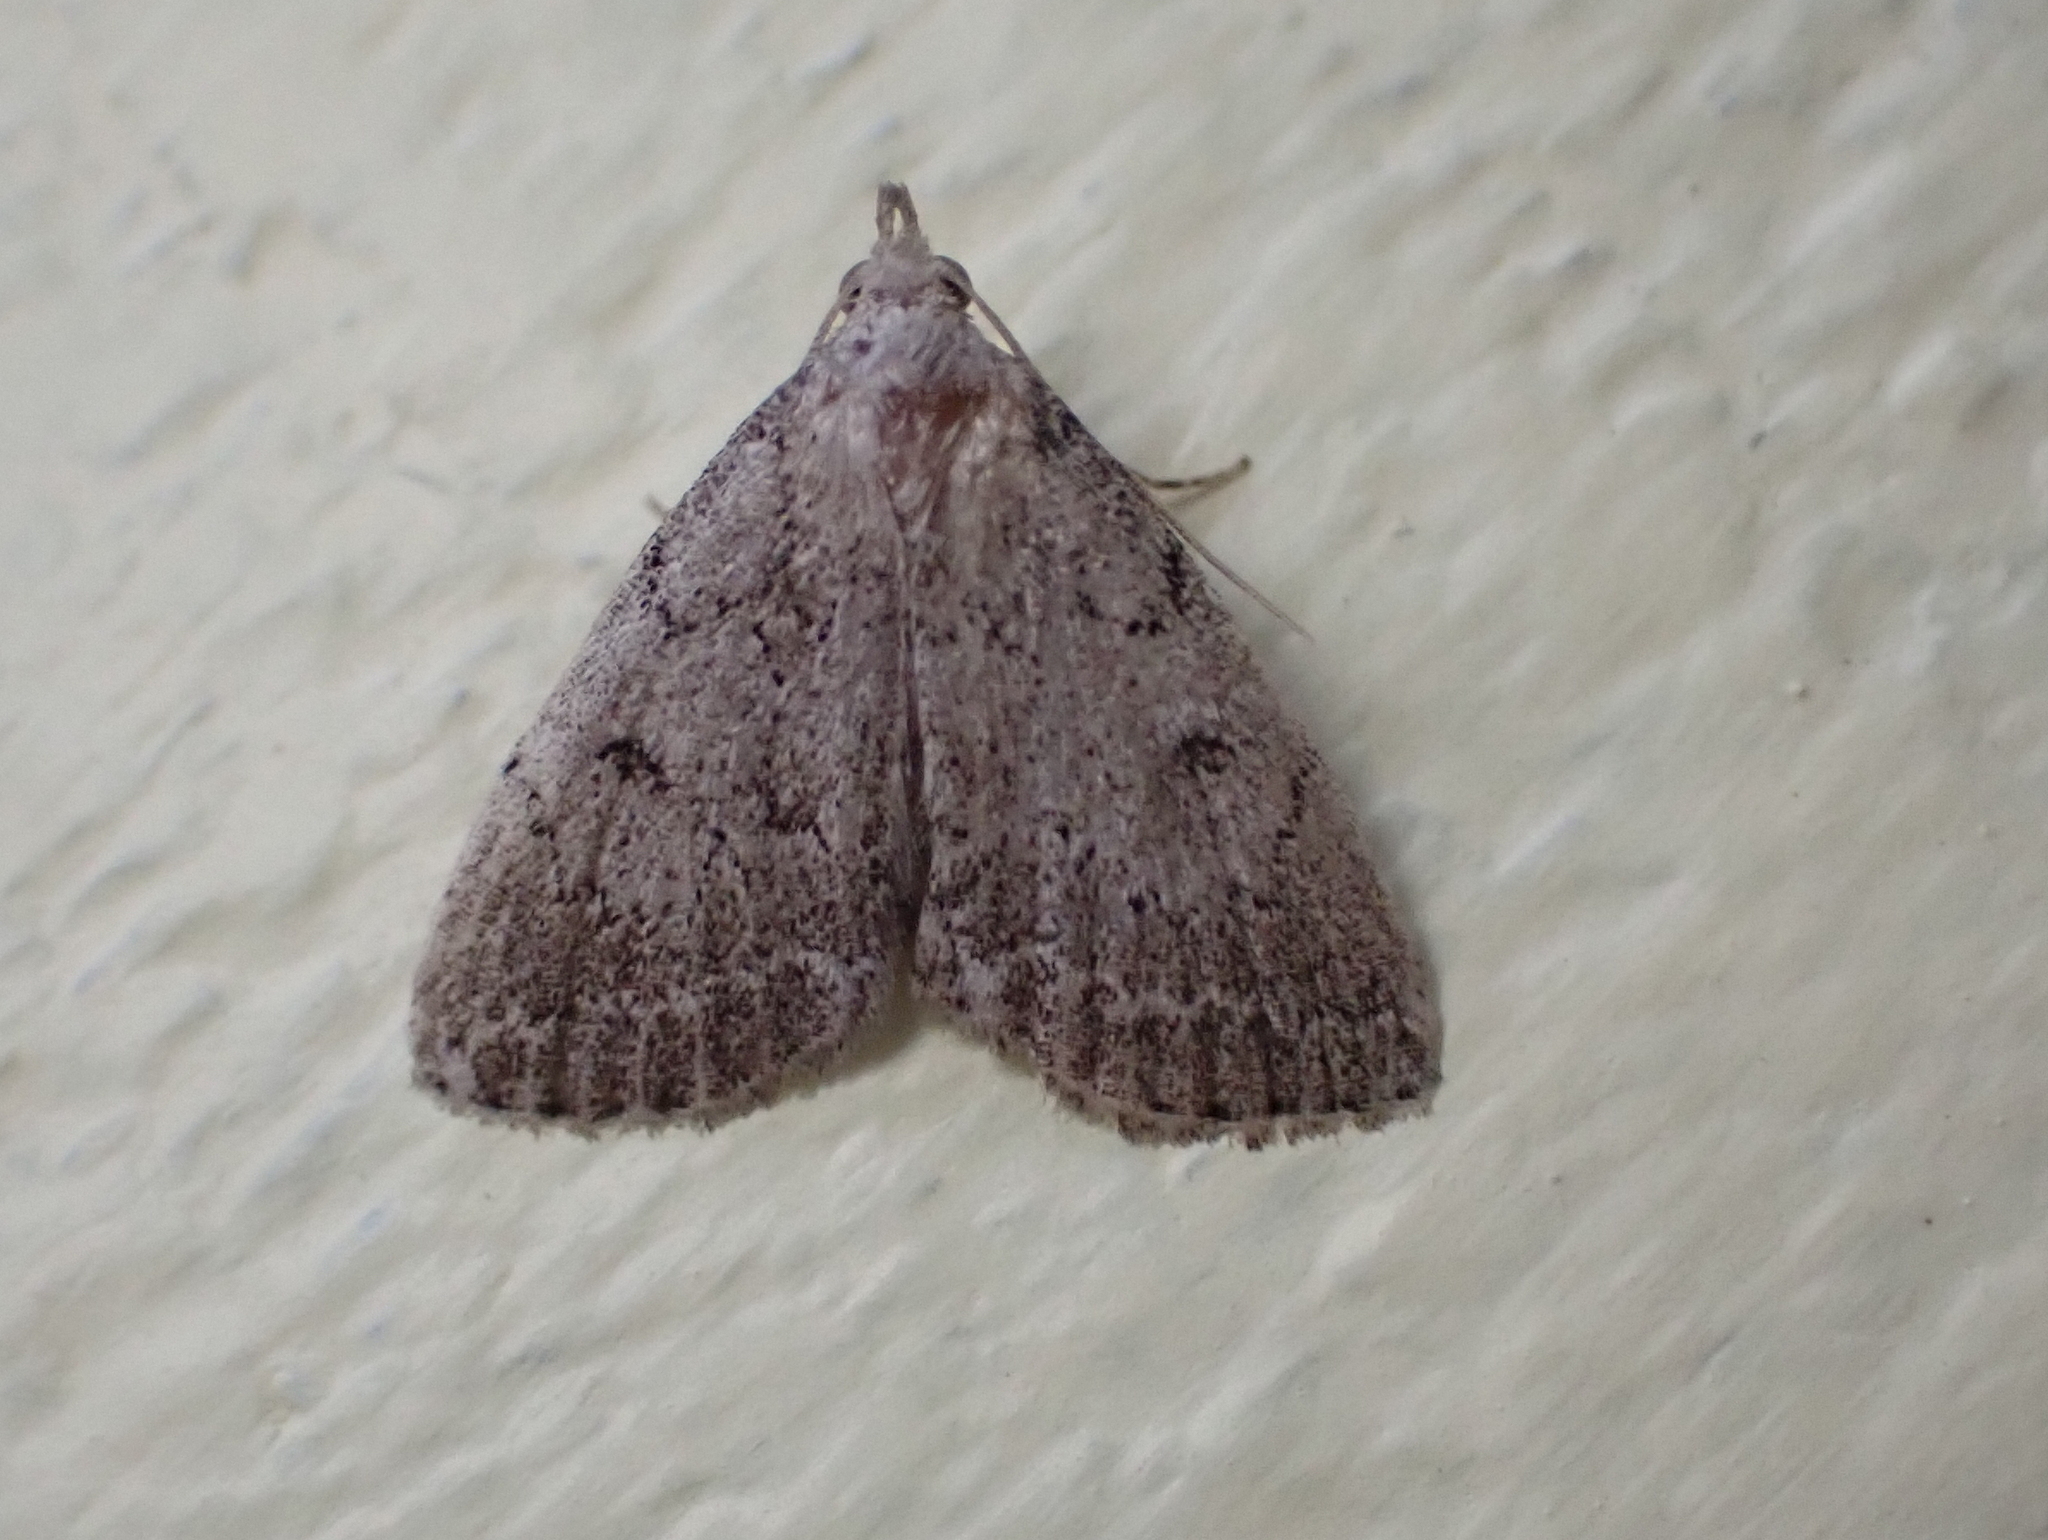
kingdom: Animalia
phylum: Arthropoda
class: Insecta
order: Lepidoptera
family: Erebidae
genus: Zanclognatha
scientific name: Zanclognatha theralis
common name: Flagged fan-foot
